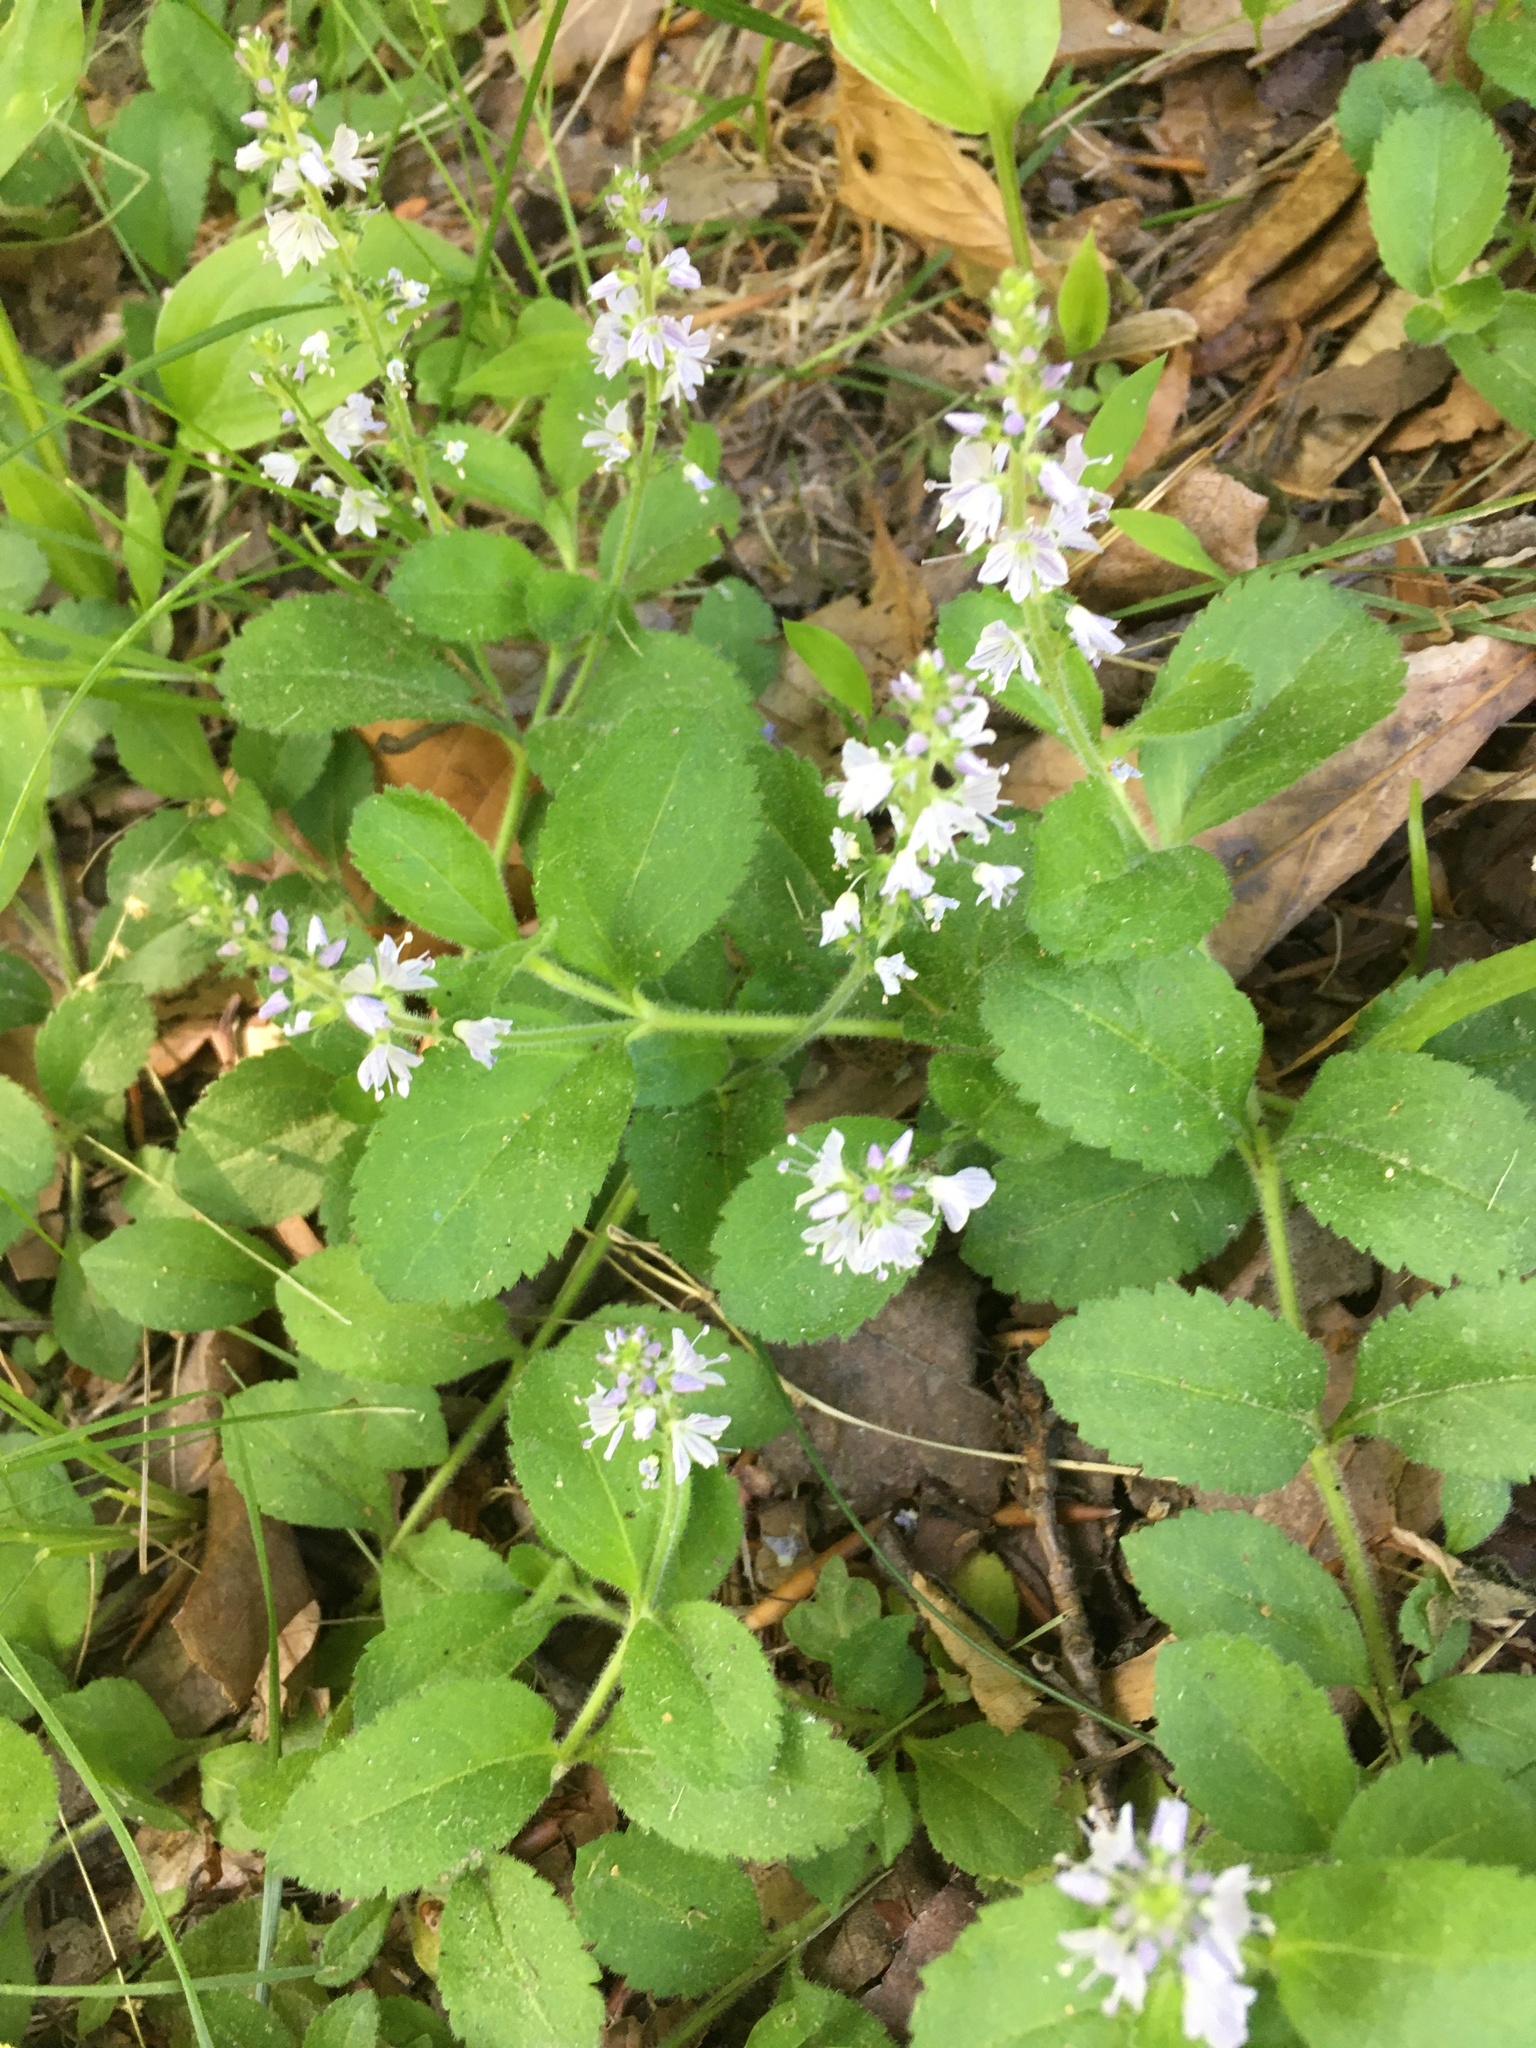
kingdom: Plantae
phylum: Tracheophyta
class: Magnoliopsida
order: Lamiales
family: Plantaginaceae
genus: Veronica
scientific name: Veronica officinalis
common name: Common speedwell
